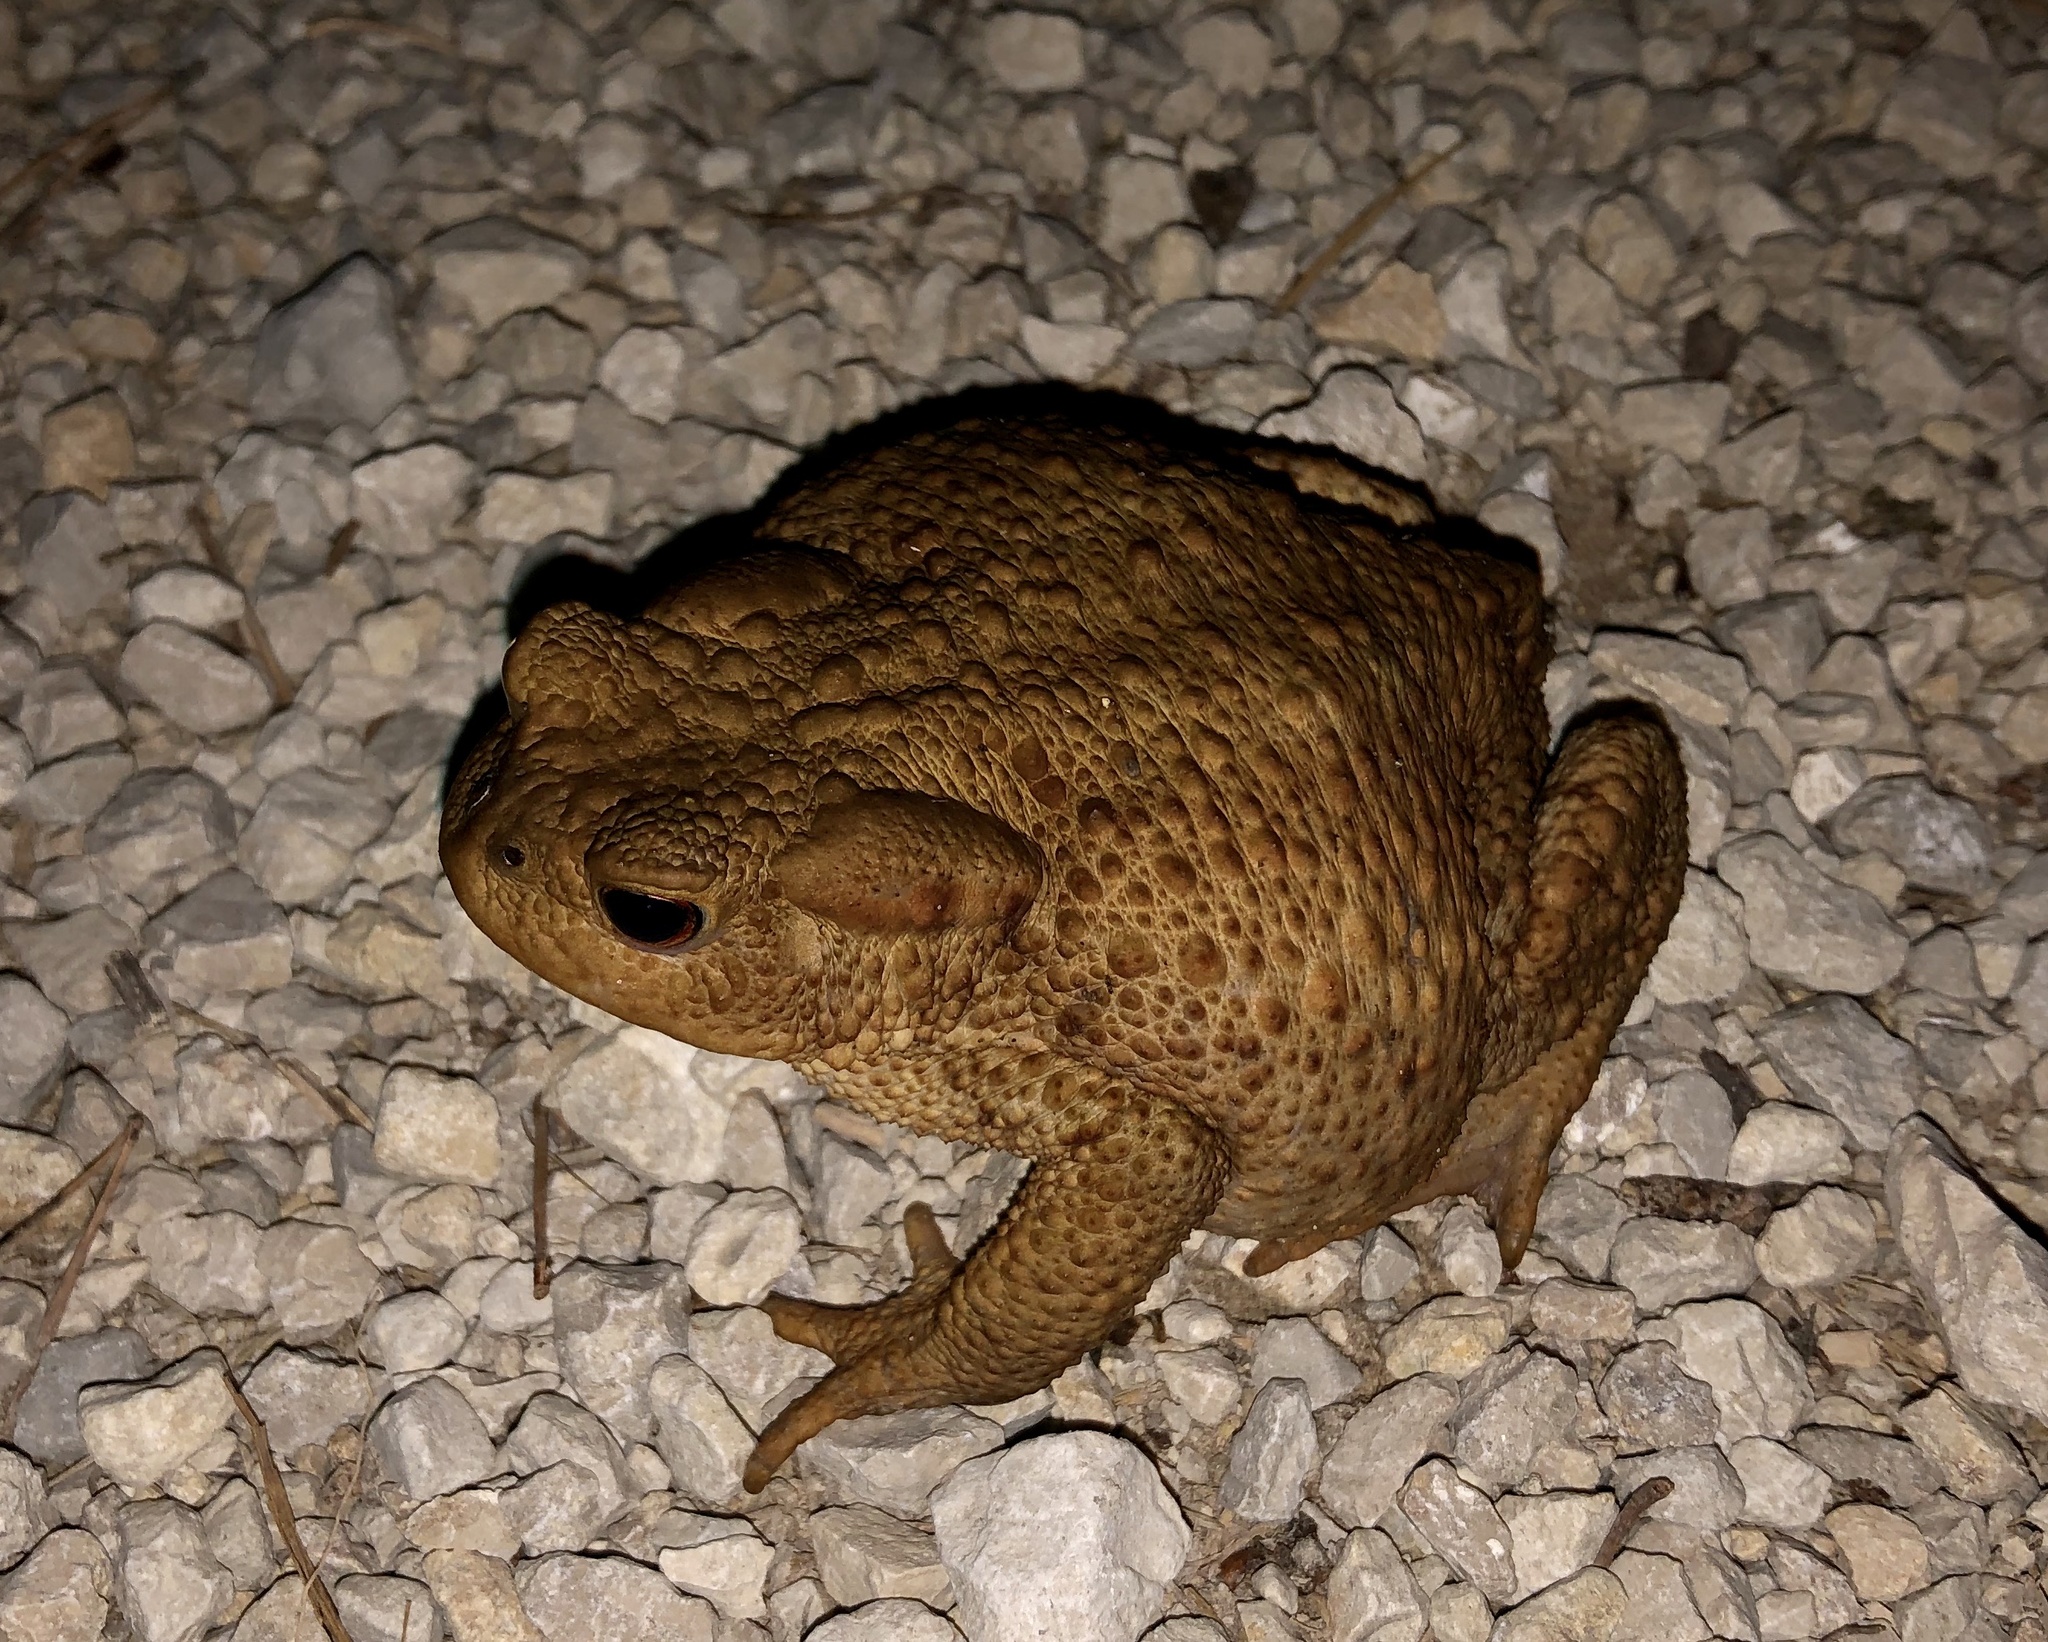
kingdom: Animalia
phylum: Chordata
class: Amphibia
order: Anura
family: Bufonidae
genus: Bufo
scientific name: Bufo bufo
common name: Common toad
